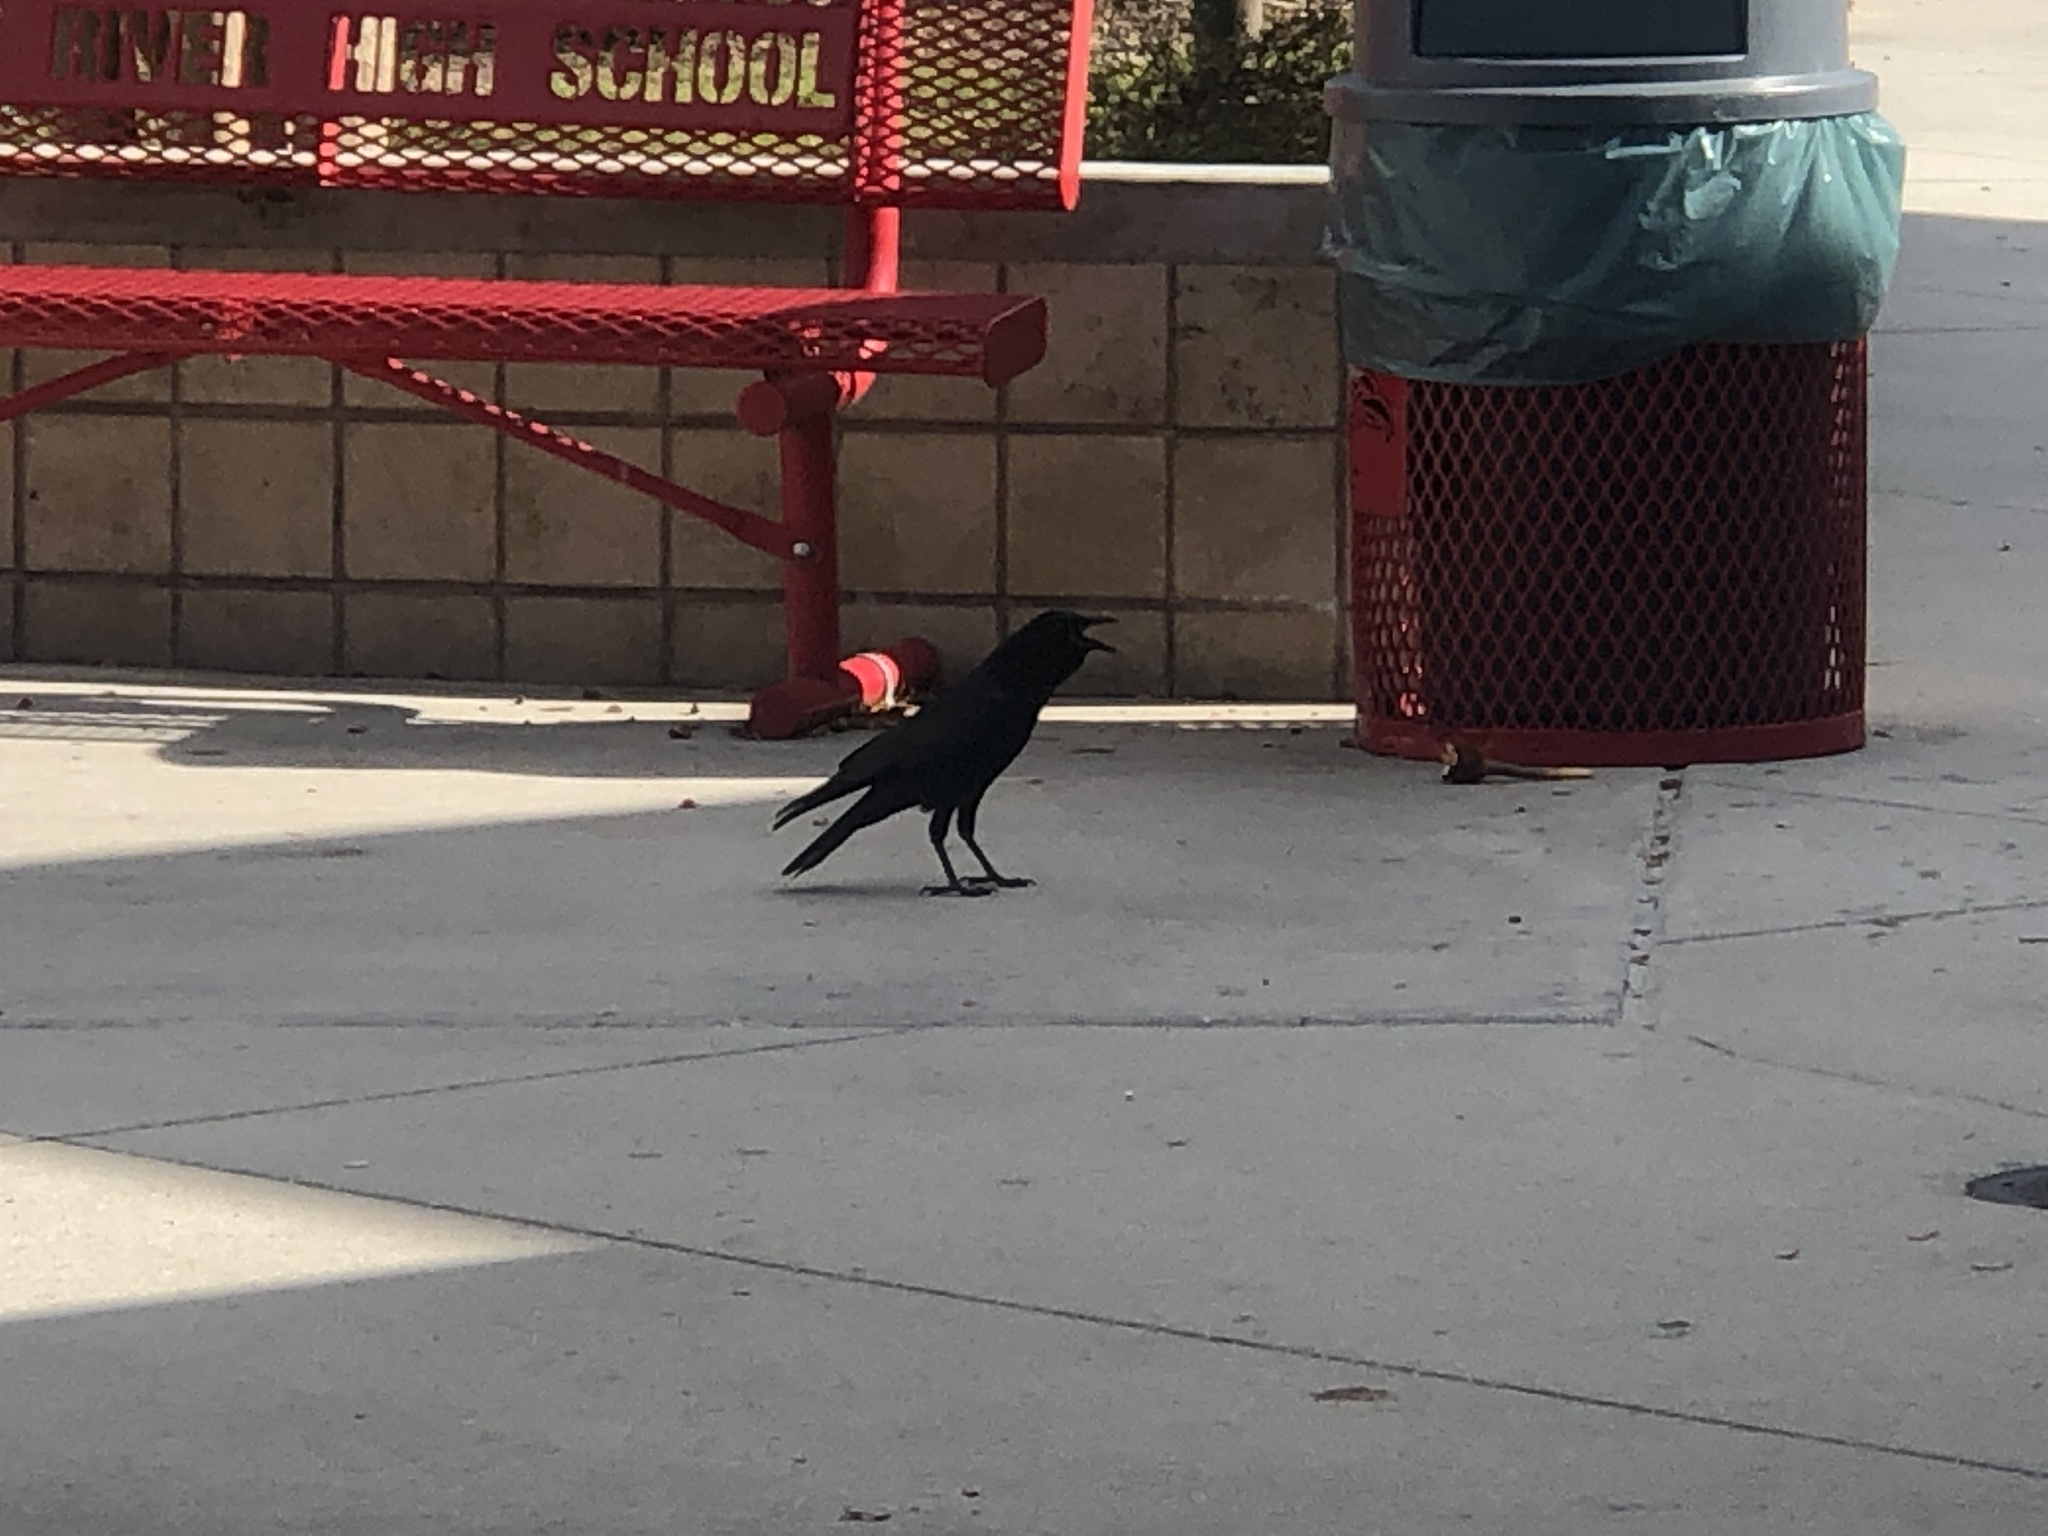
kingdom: Animalia
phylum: Chordata
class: Aves
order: Passeriformes
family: Corvidae
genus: Corvus
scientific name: Corvus
